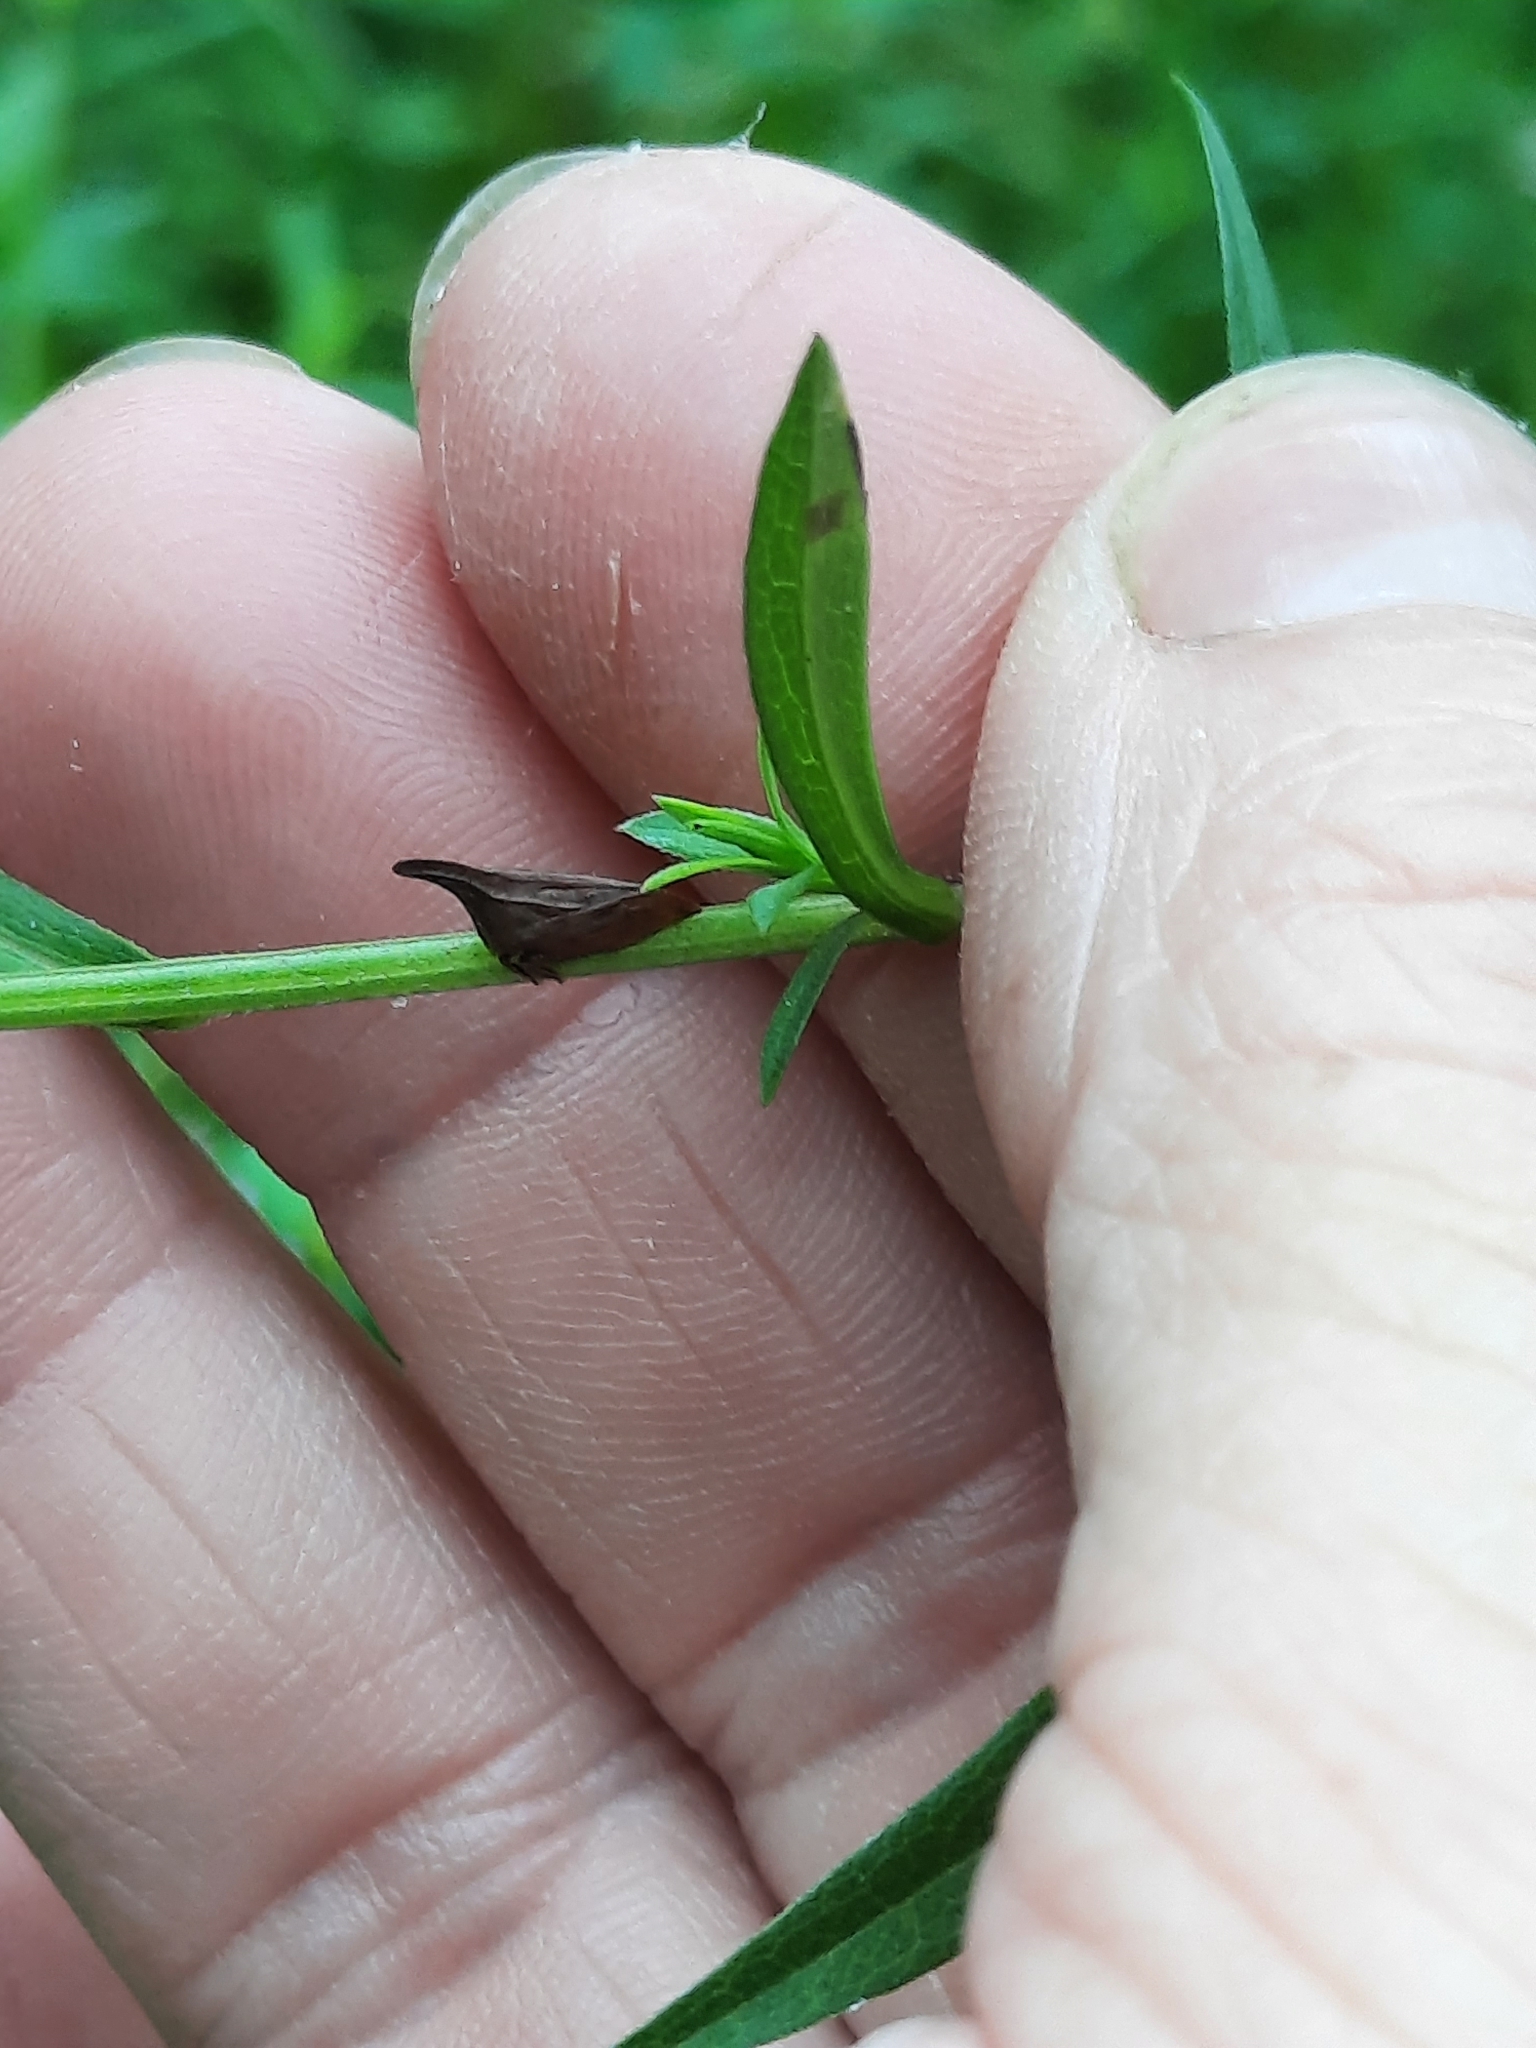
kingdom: Animalia
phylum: Arthropoda
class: Insecta
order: Hemiptera
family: Membracidae
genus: Enchenopa
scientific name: Enchenopa latipes
